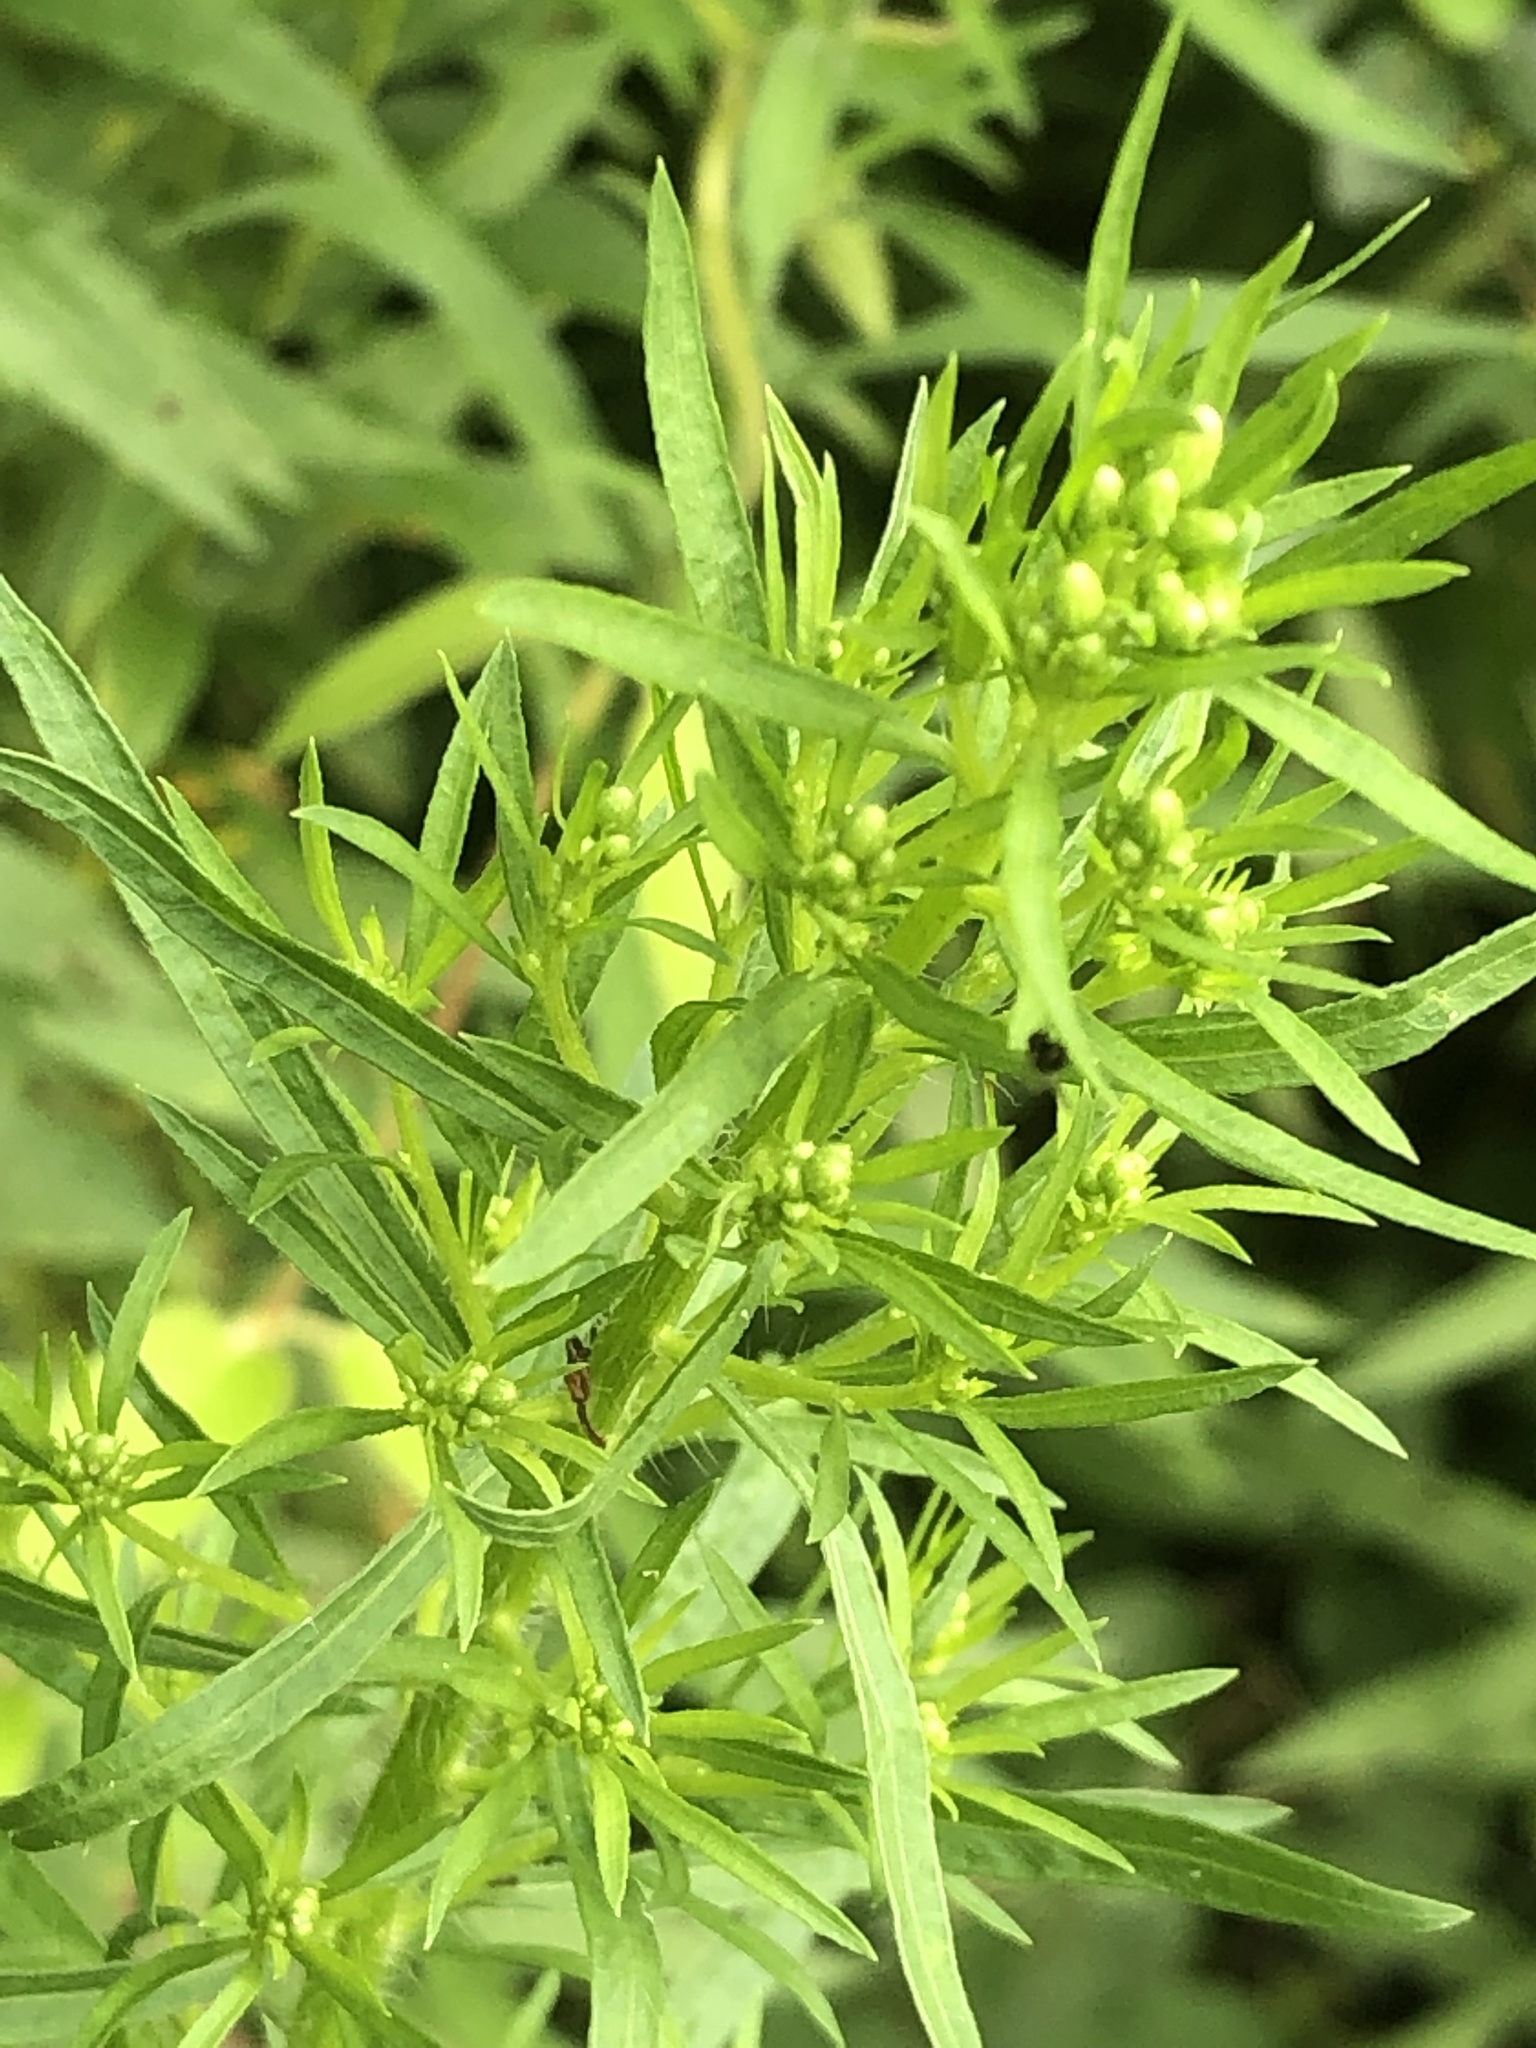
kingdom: Plantae
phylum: Tracheophyta
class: Magnoliopsida
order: Asterales
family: Asteraceae
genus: Erigeron
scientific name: Erigeron canadensis
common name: Canadian fleabane
